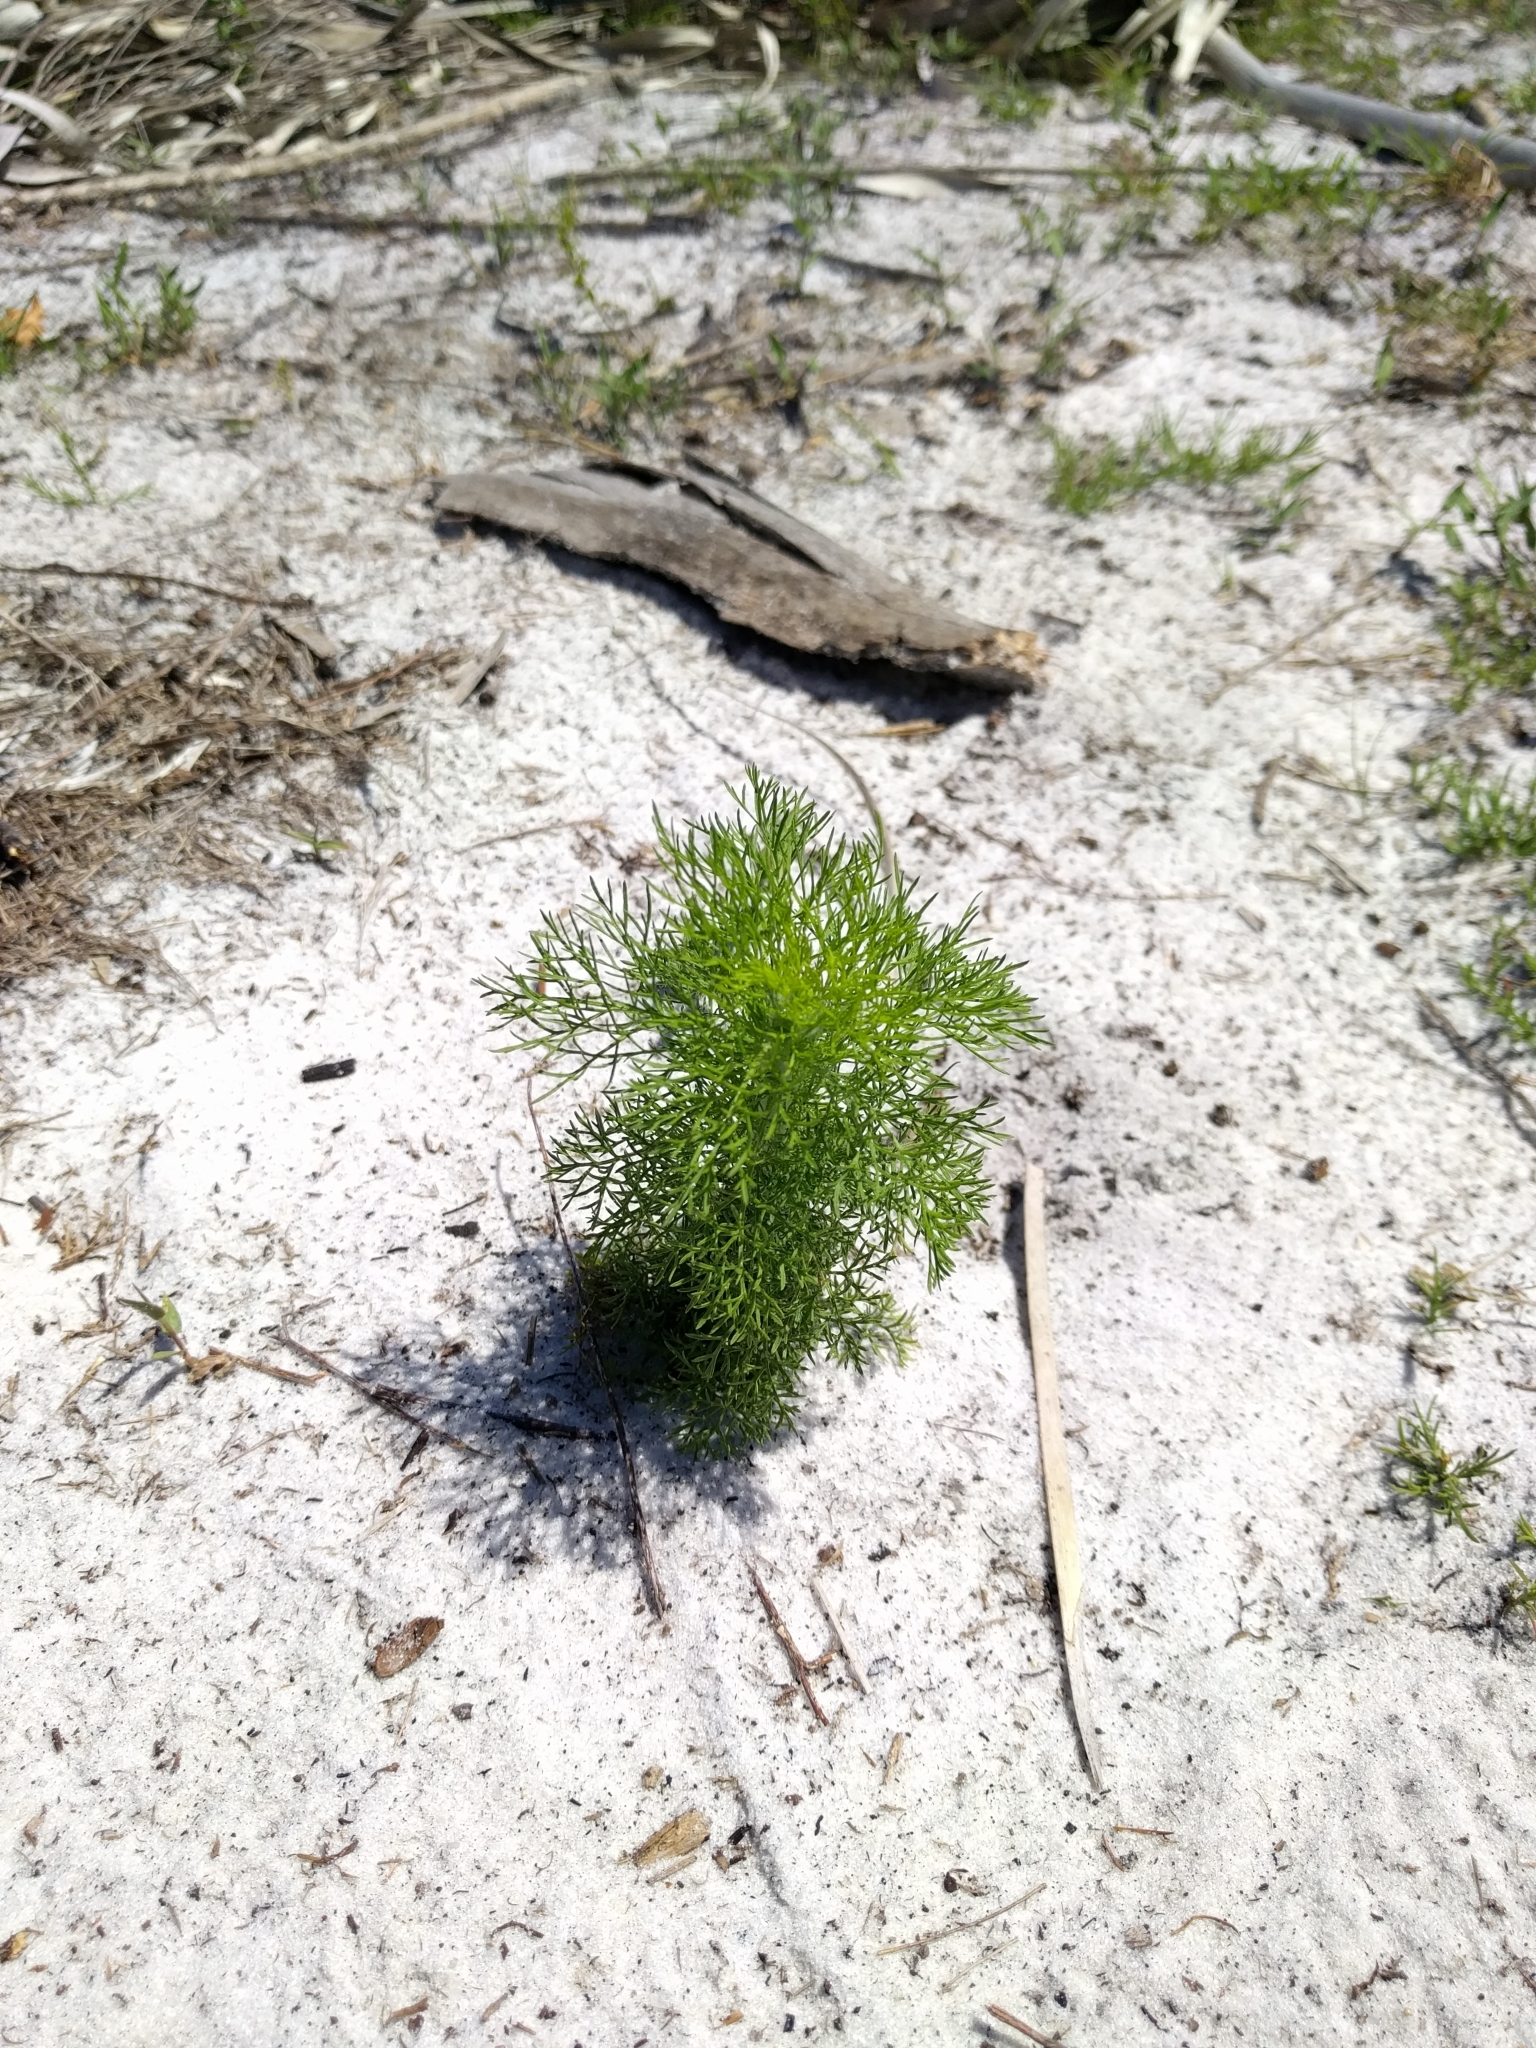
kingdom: Plantae
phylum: Tracheophyta
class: Magnoliopsida
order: Asterales
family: Asteraceae
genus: Eupatorium
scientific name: Eupatorium capillifolium
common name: Dog-fennel
